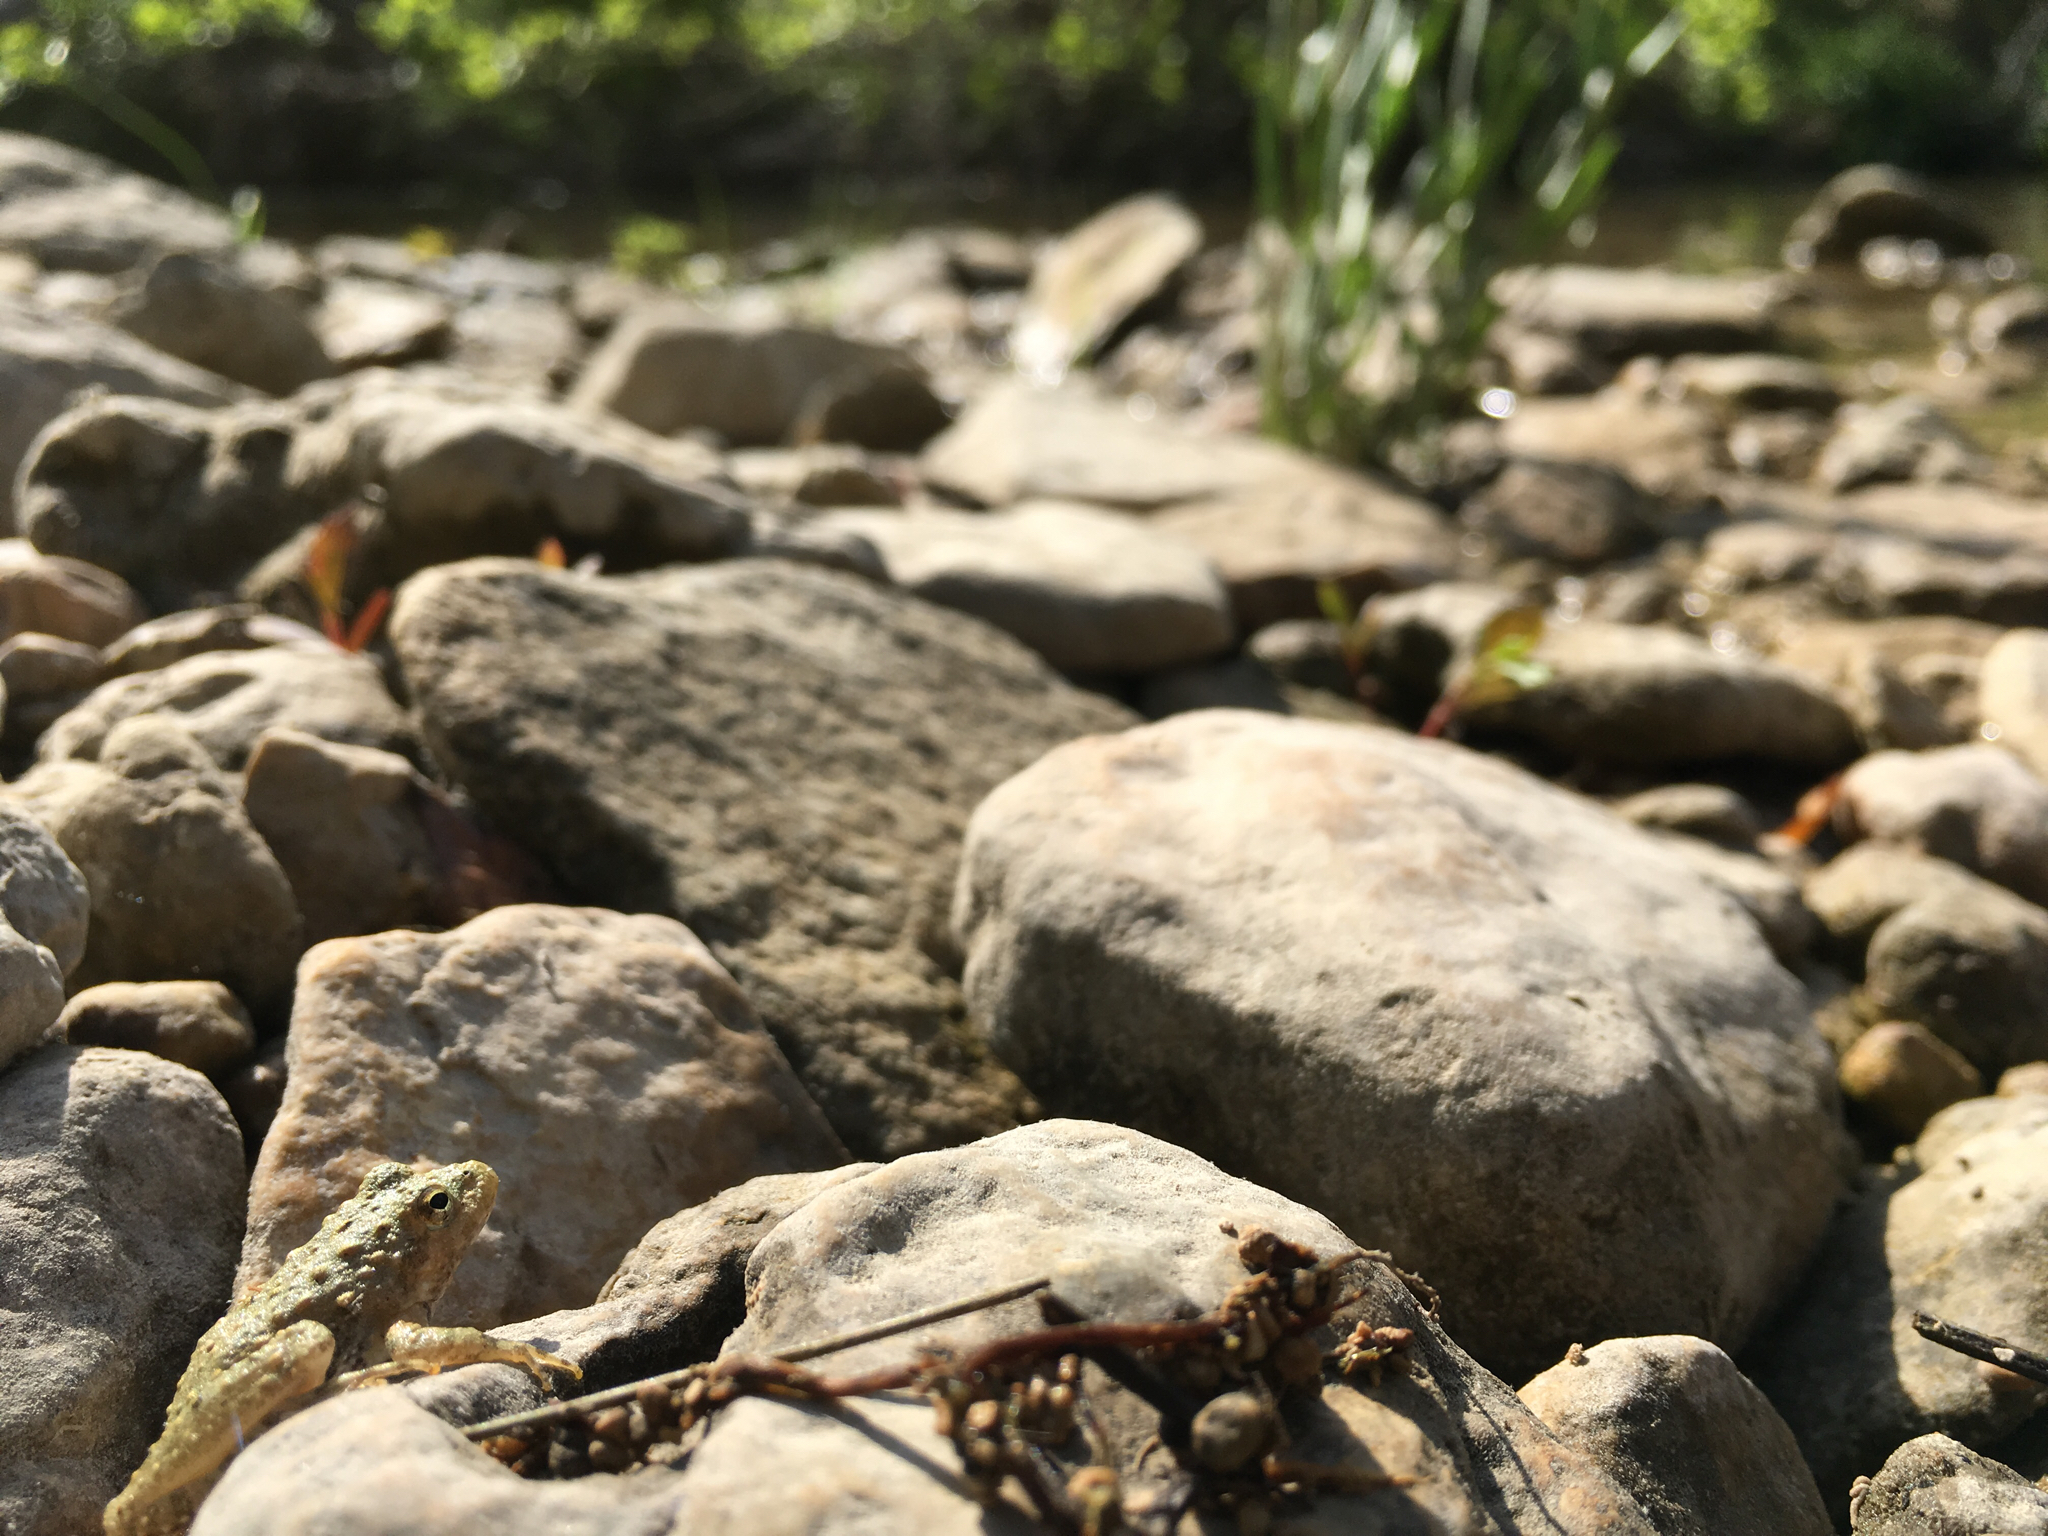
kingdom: Animalia
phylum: Chordata
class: Amphibia
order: Anura
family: Hylidae
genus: Acris
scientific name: Acris blanchardi
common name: Blanchard's cricket frog
